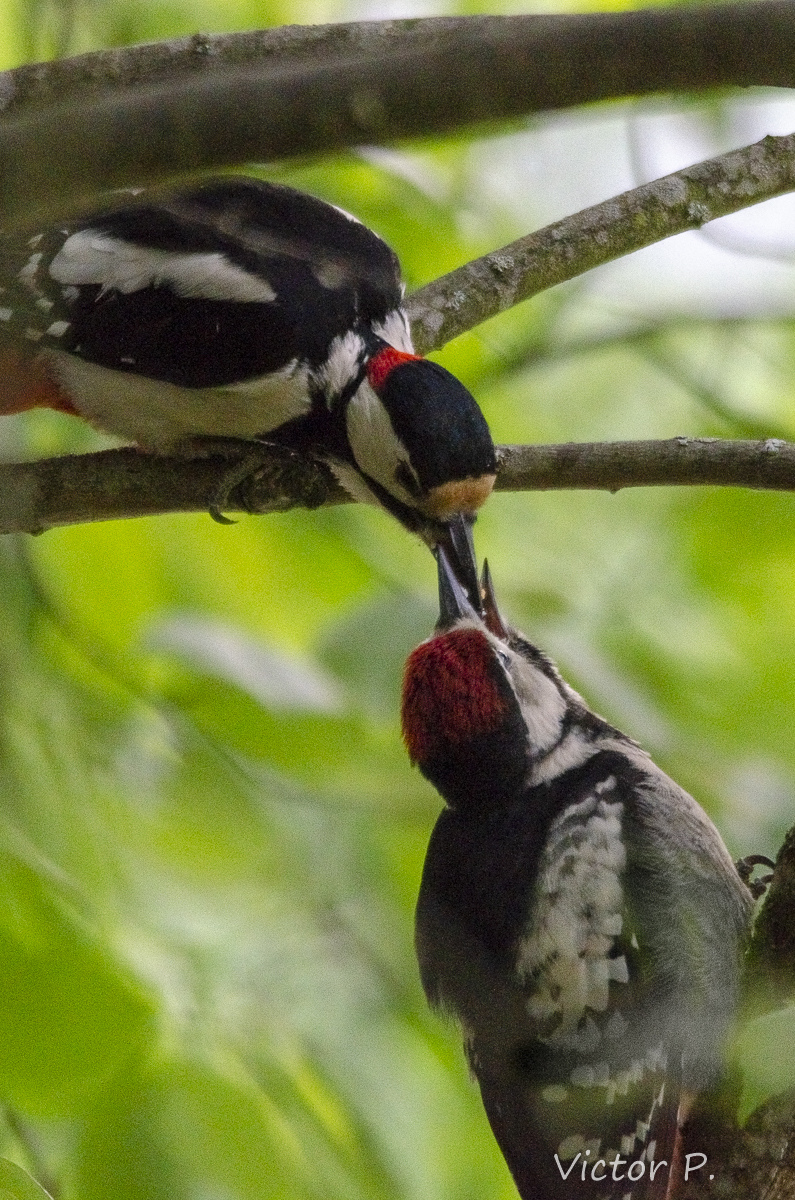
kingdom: Animalia
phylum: Chordata
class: Aves
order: Piciformes
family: Picidae
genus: Dendrocopos
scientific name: Dendrocopos major
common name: Great spotted woodpecker
